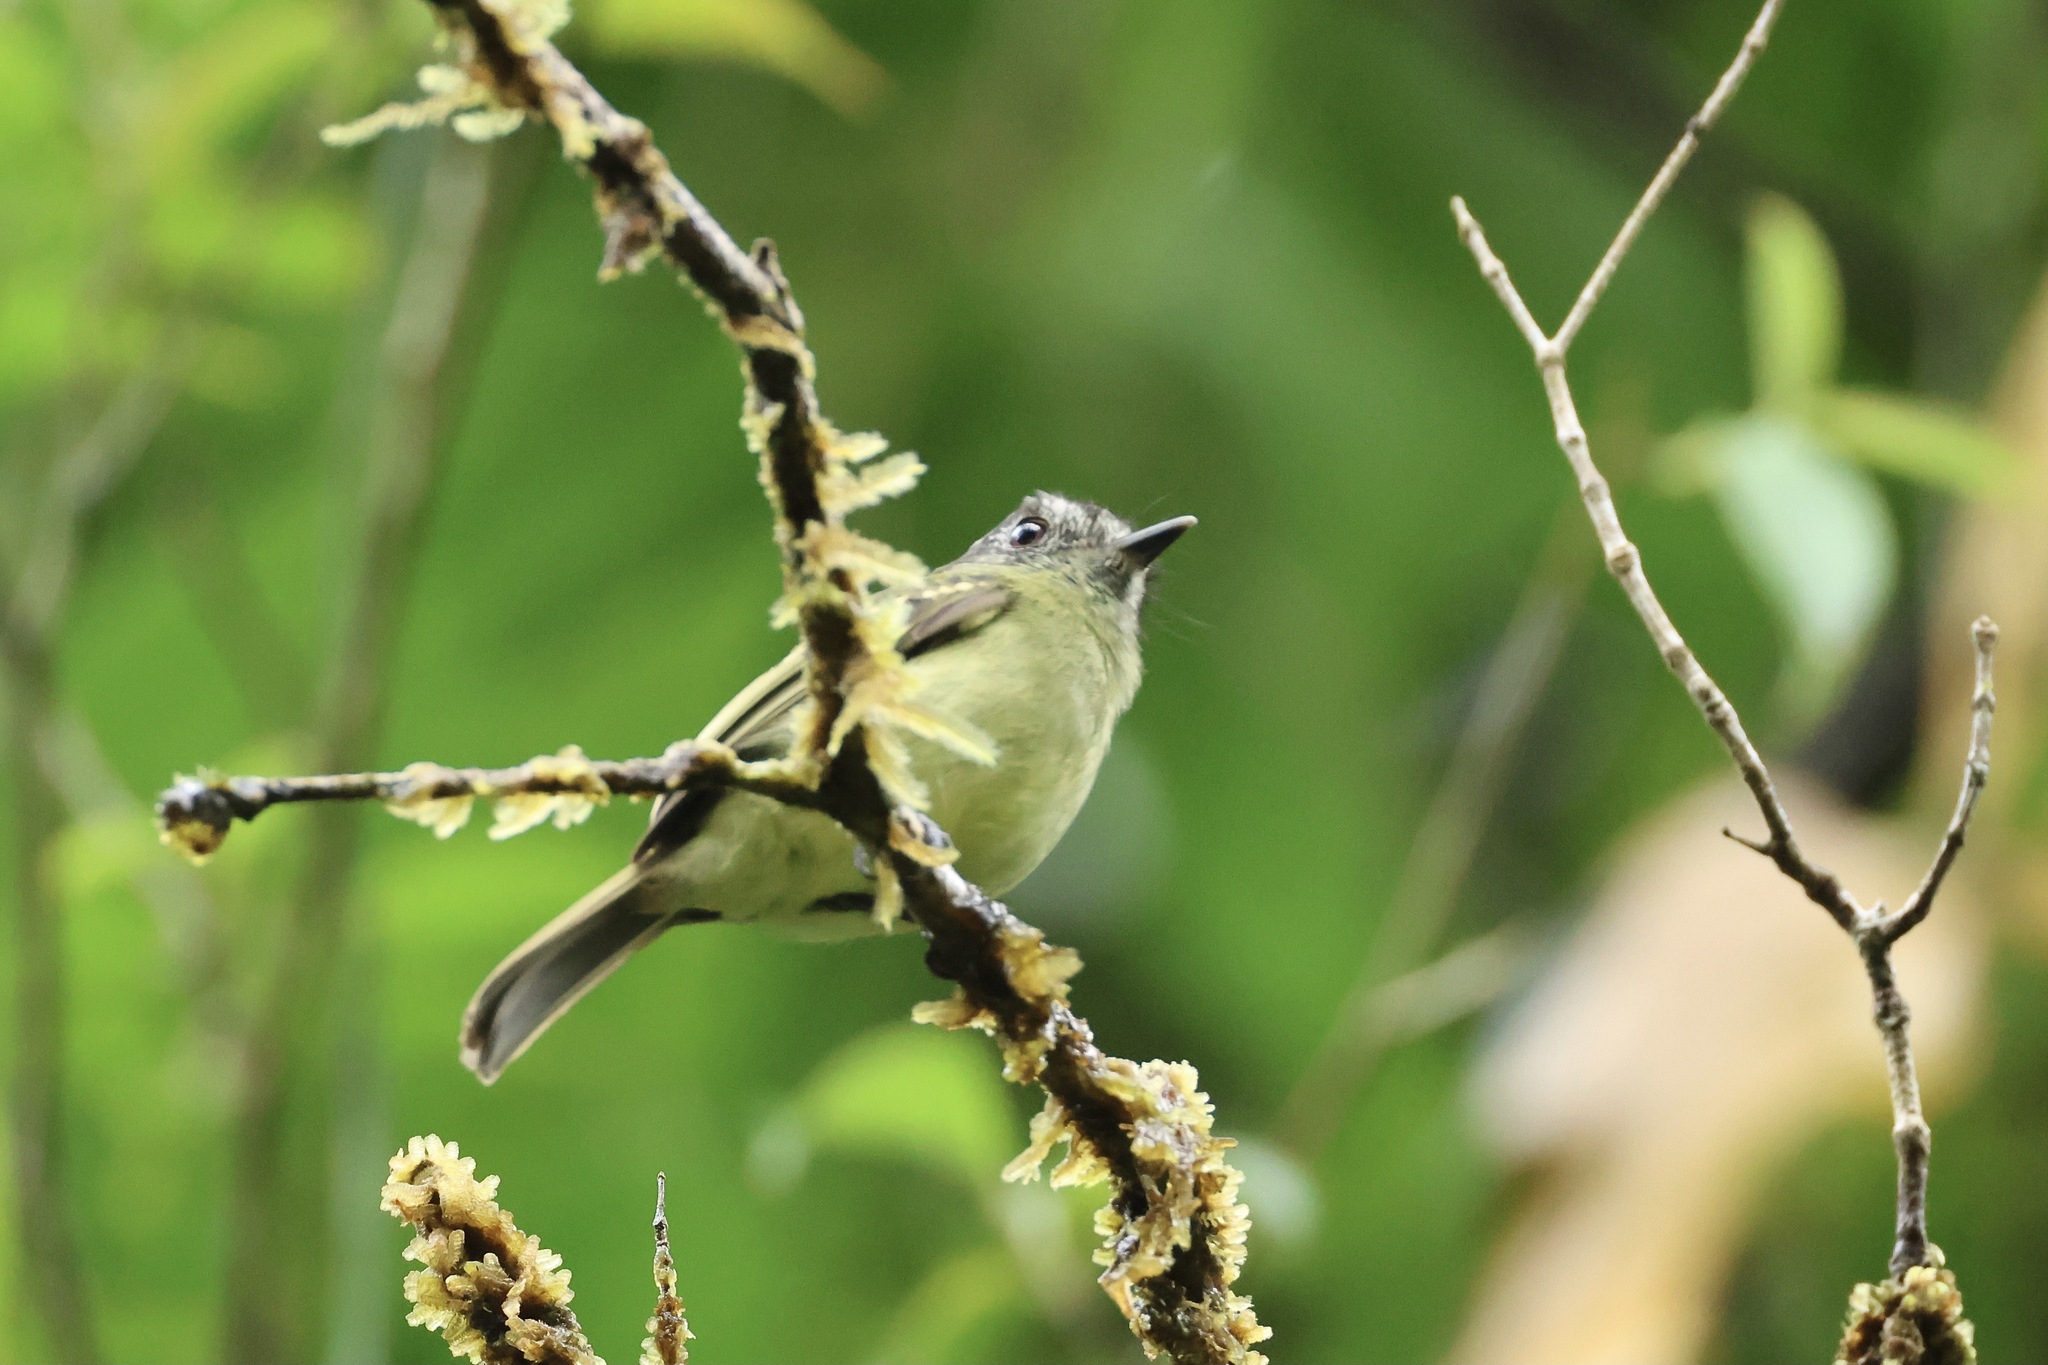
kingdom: Animalia
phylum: Chordata
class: Aves
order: Passeriformes
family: Tyrannidae
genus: Leptopogon
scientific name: Leptopogon superciliaris
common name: Slaty-capped flycatcher
